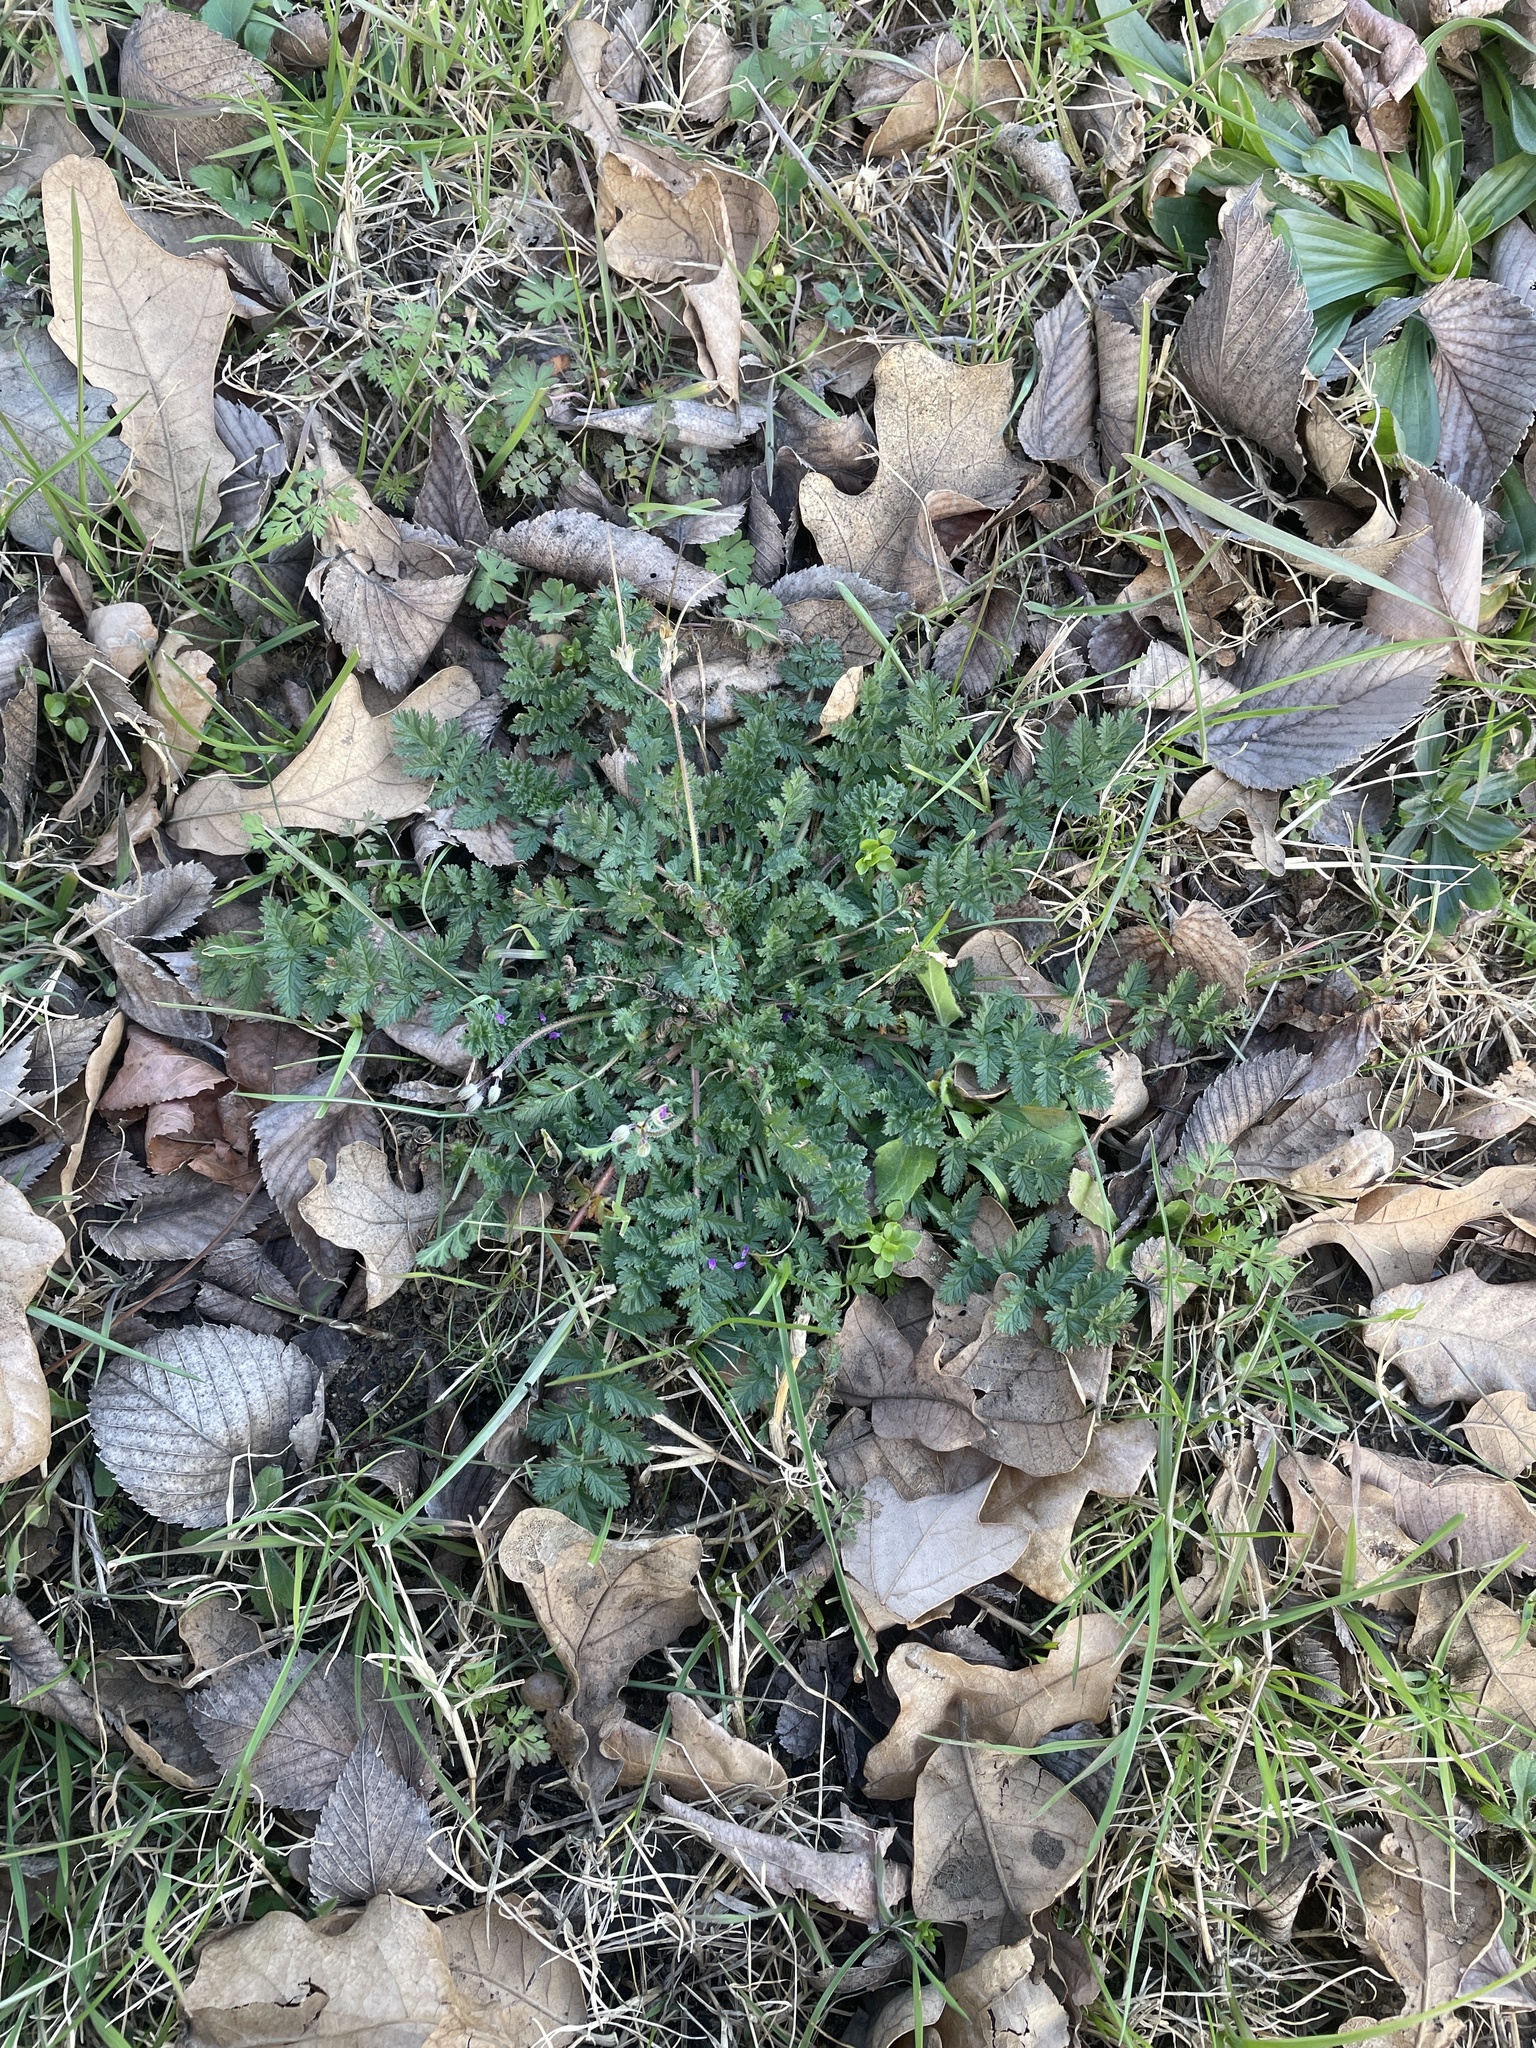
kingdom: Plantae
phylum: Tracheophyta
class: Magnoliopsida
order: Geraniales
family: Geraniaceae
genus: Erodium
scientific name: Erodium cicutarium
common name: Common stork's-bill
